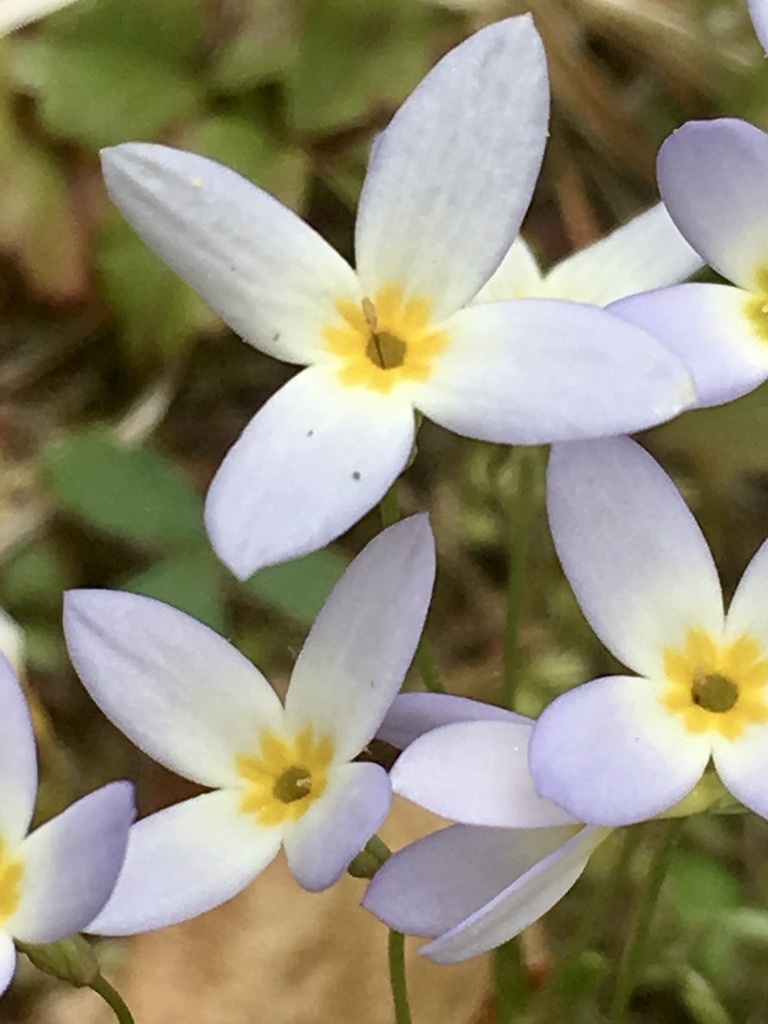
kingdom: Plantae
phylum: Tracheophyta
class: Magnoliopsida
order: Gentianales
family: Rubiaceae
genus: Houstonia
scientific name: Houstonia caerulea
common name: Bluets
